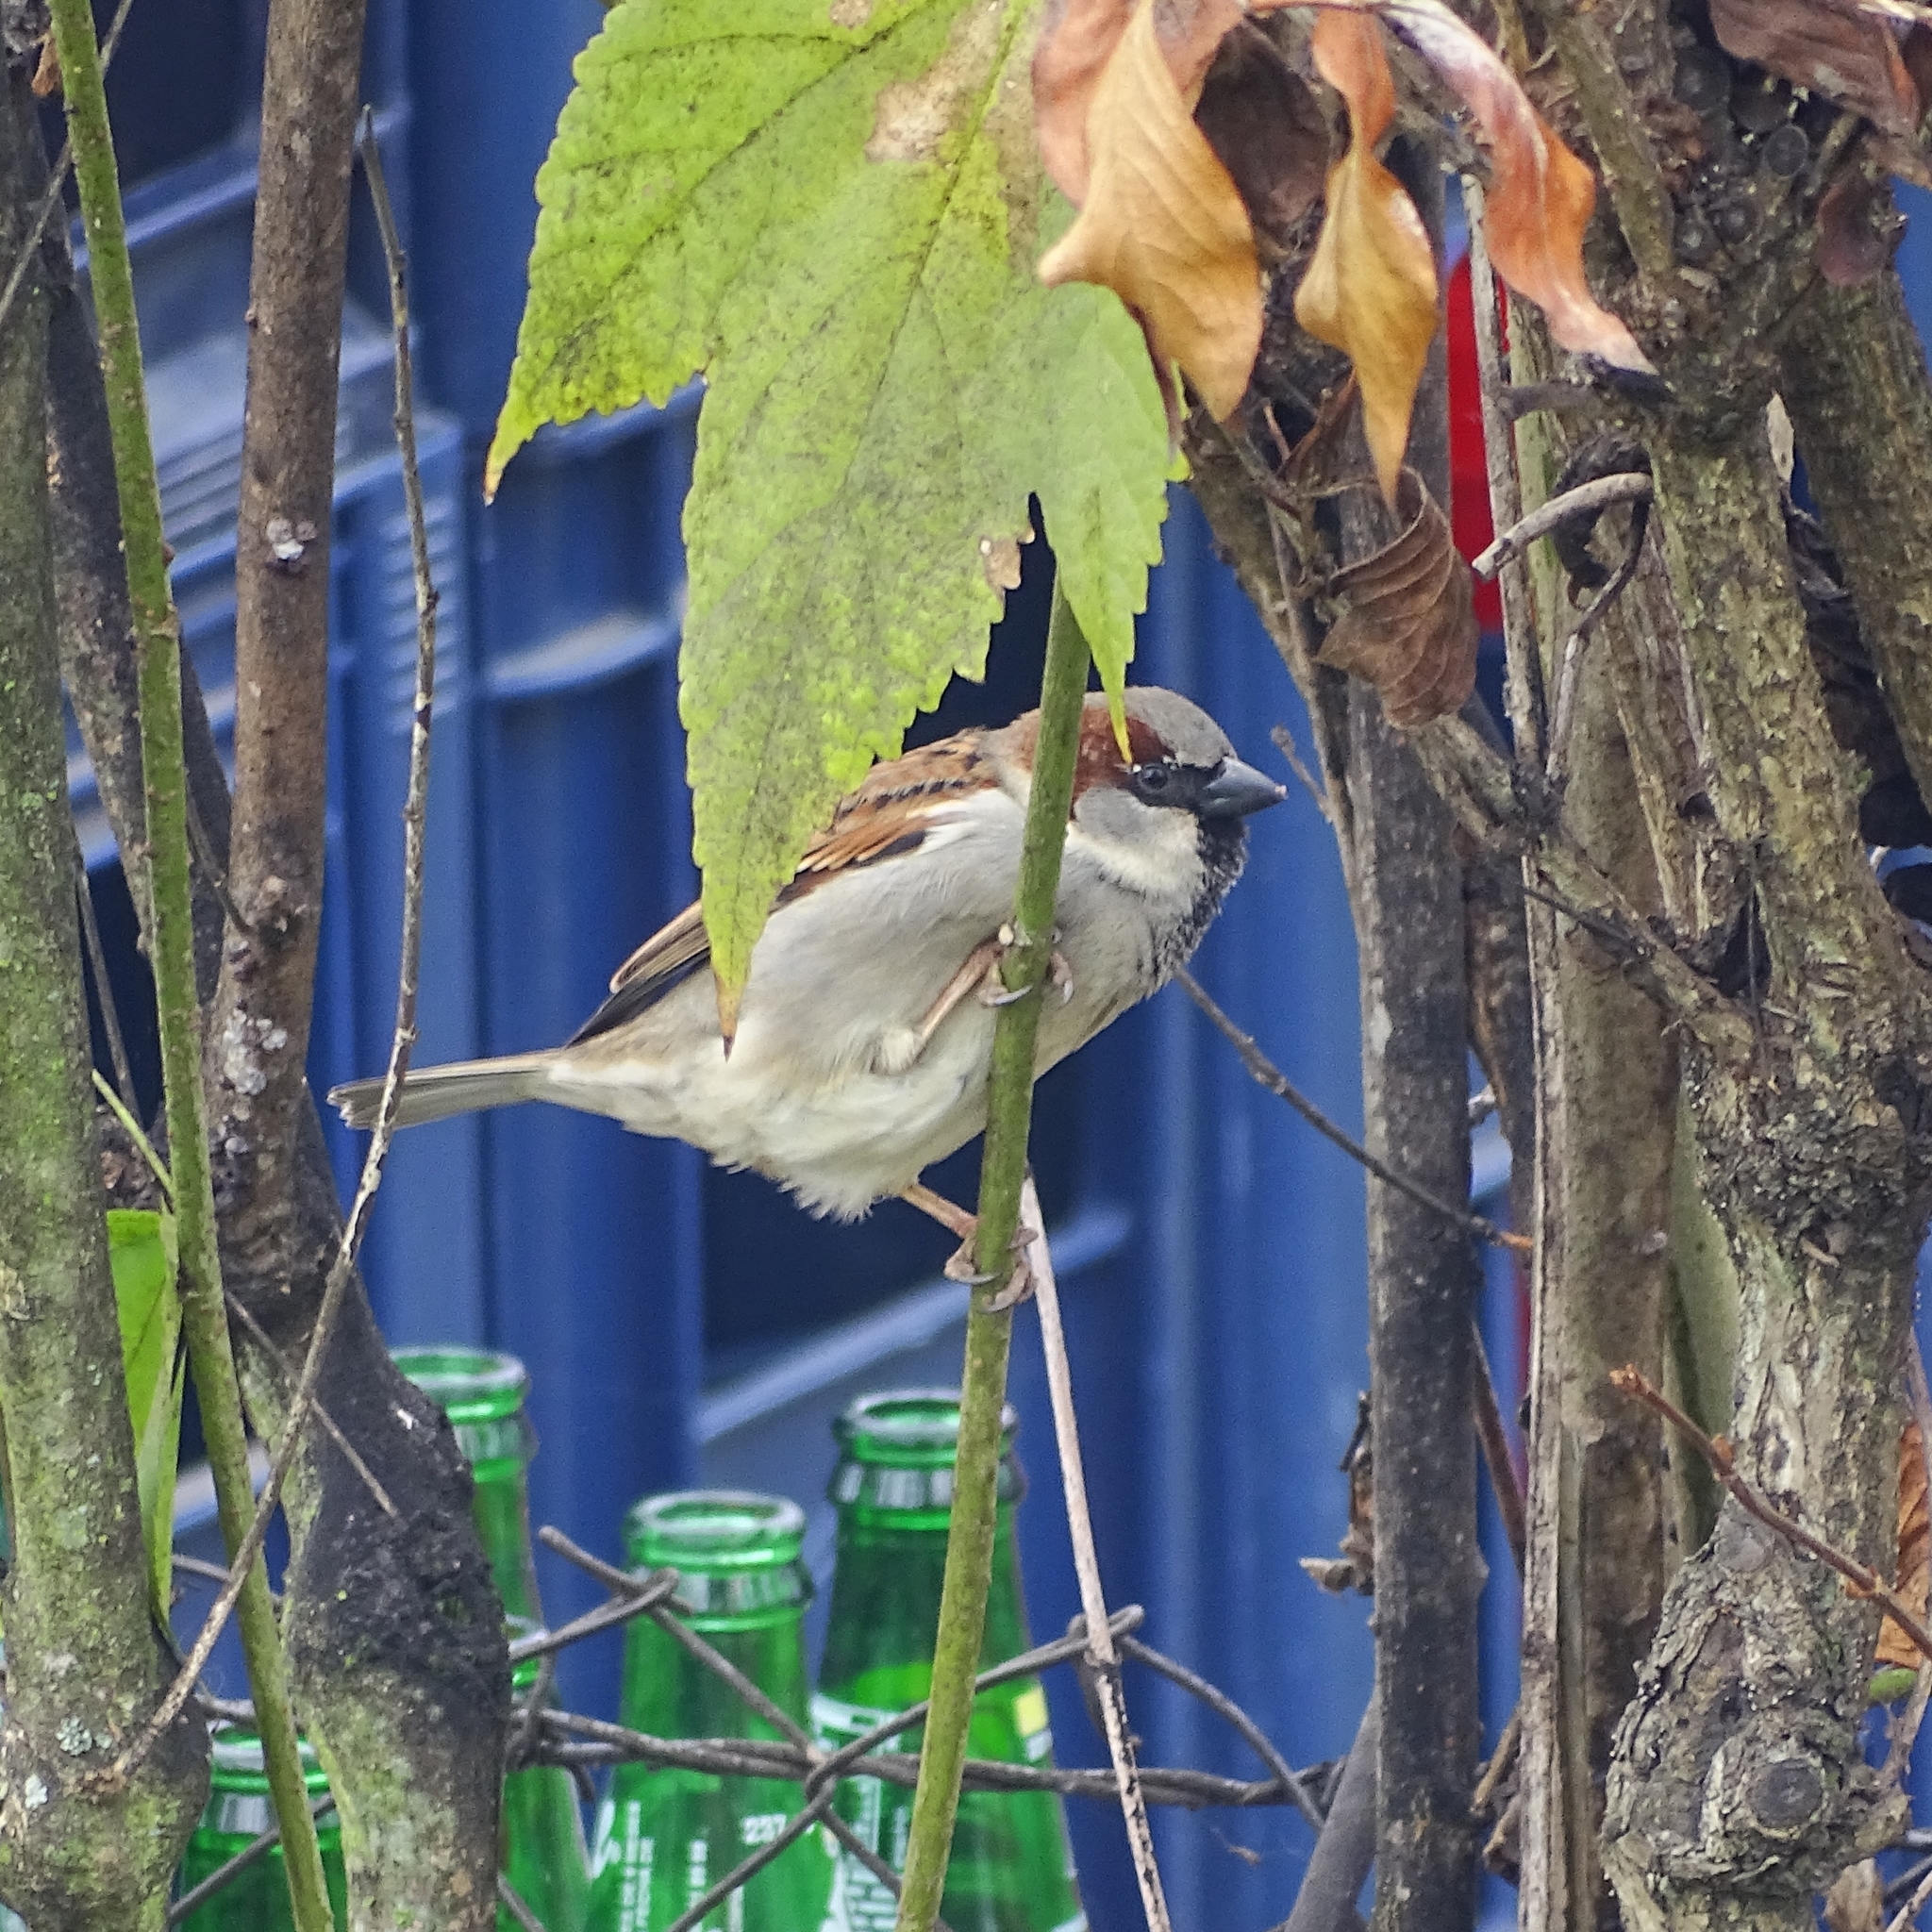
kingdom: Animalia
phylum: Chordata
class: Aves
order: Passeriformes
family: Passeridae
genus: Passer
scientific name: Passer domesticus
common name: House sparrow
